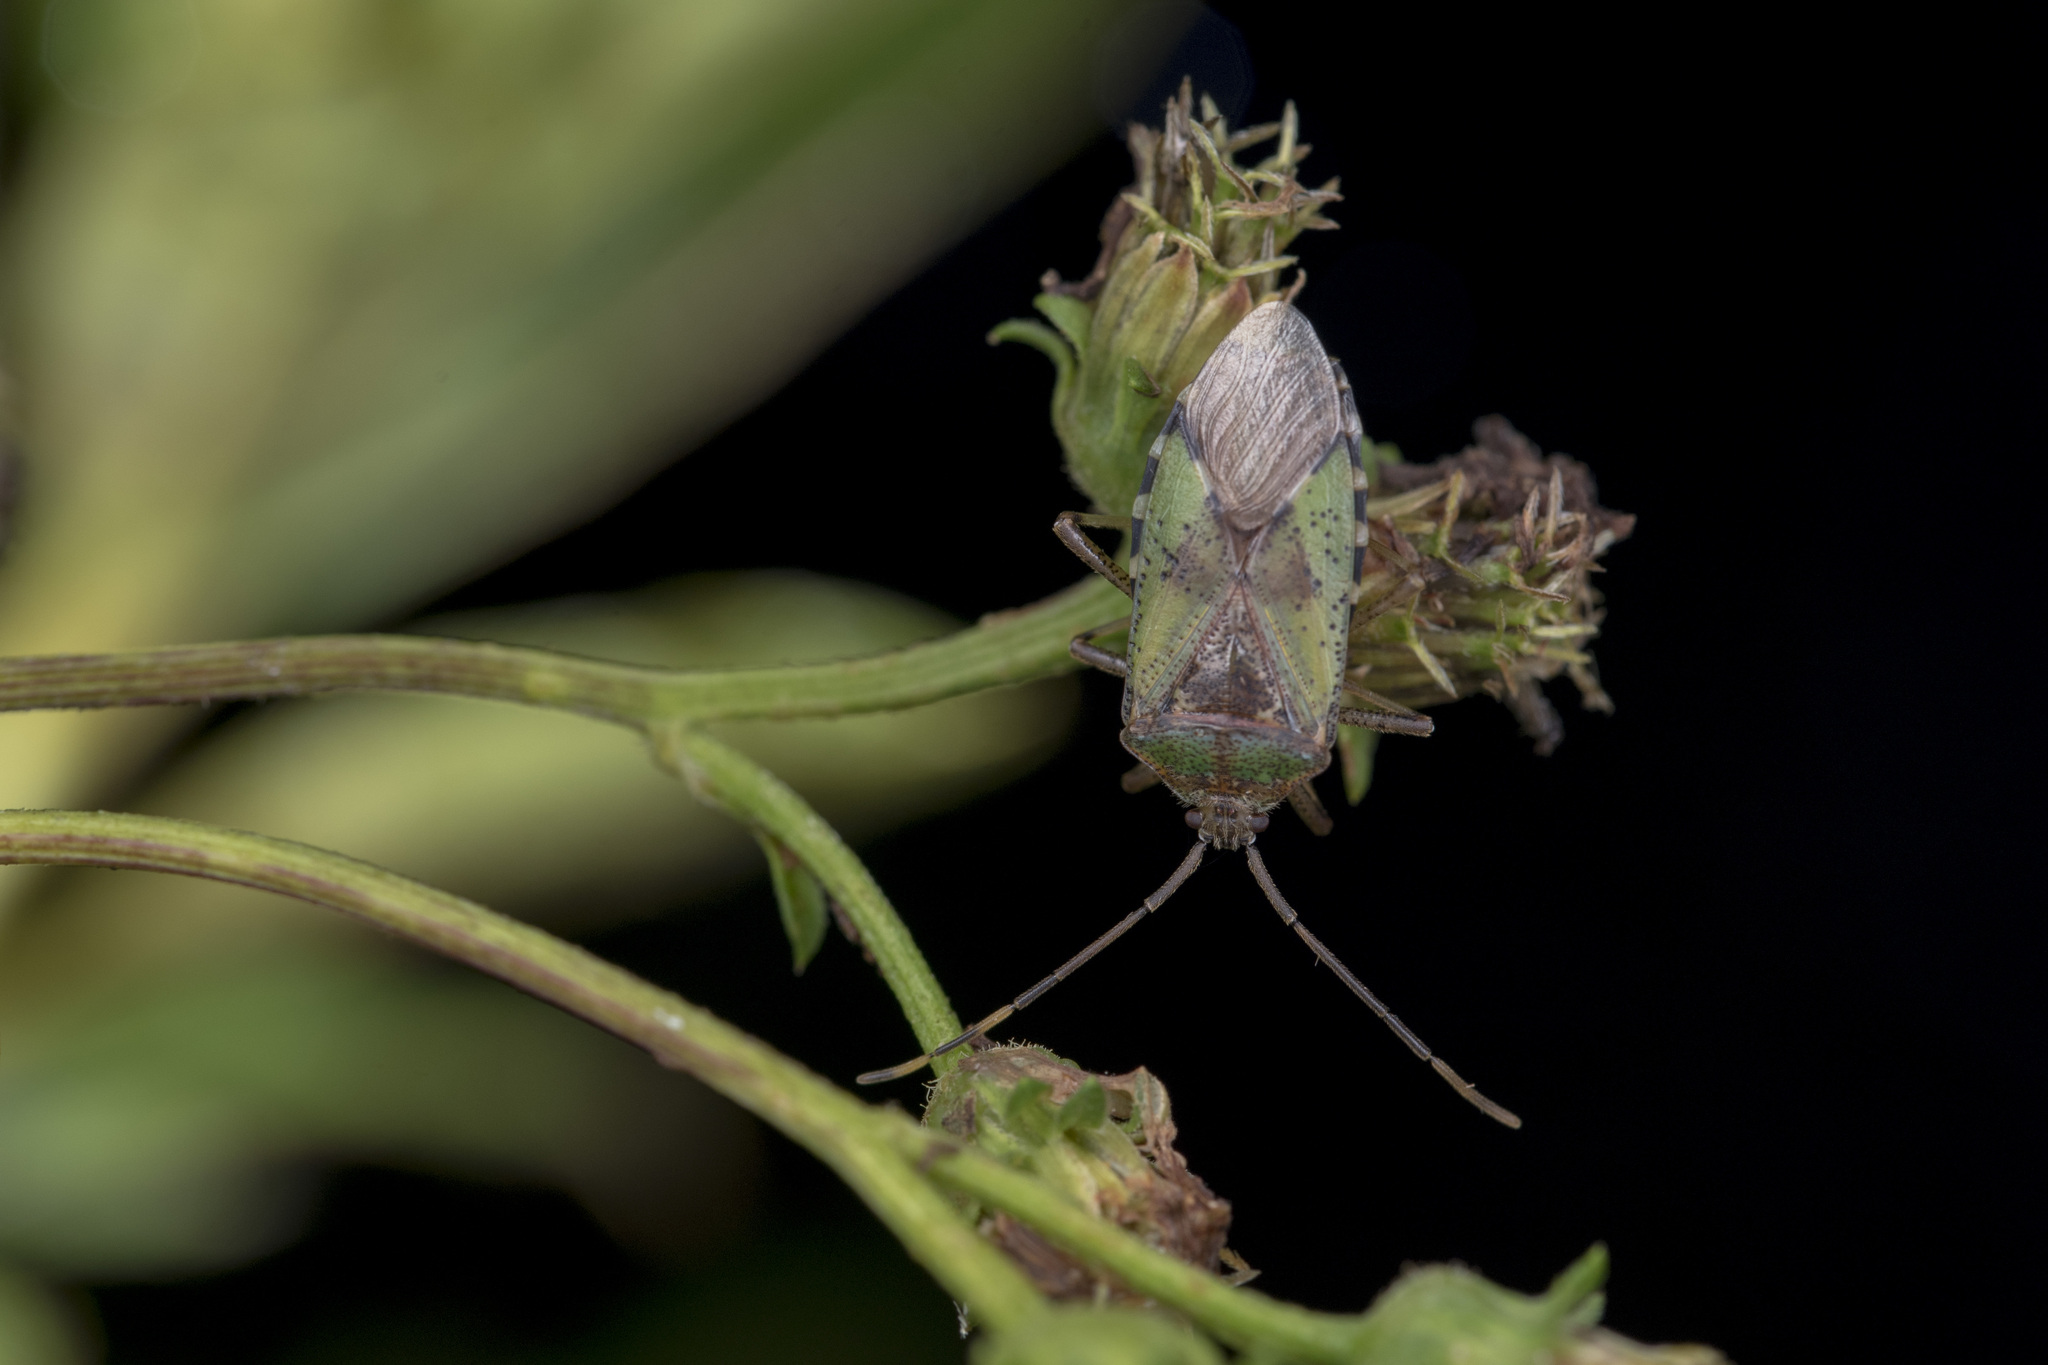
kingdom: Animalia
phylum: Arthropoda
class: Insecta
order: Hemiptera
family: Urostylididae
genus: Urochela
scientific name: Urochela strandi
